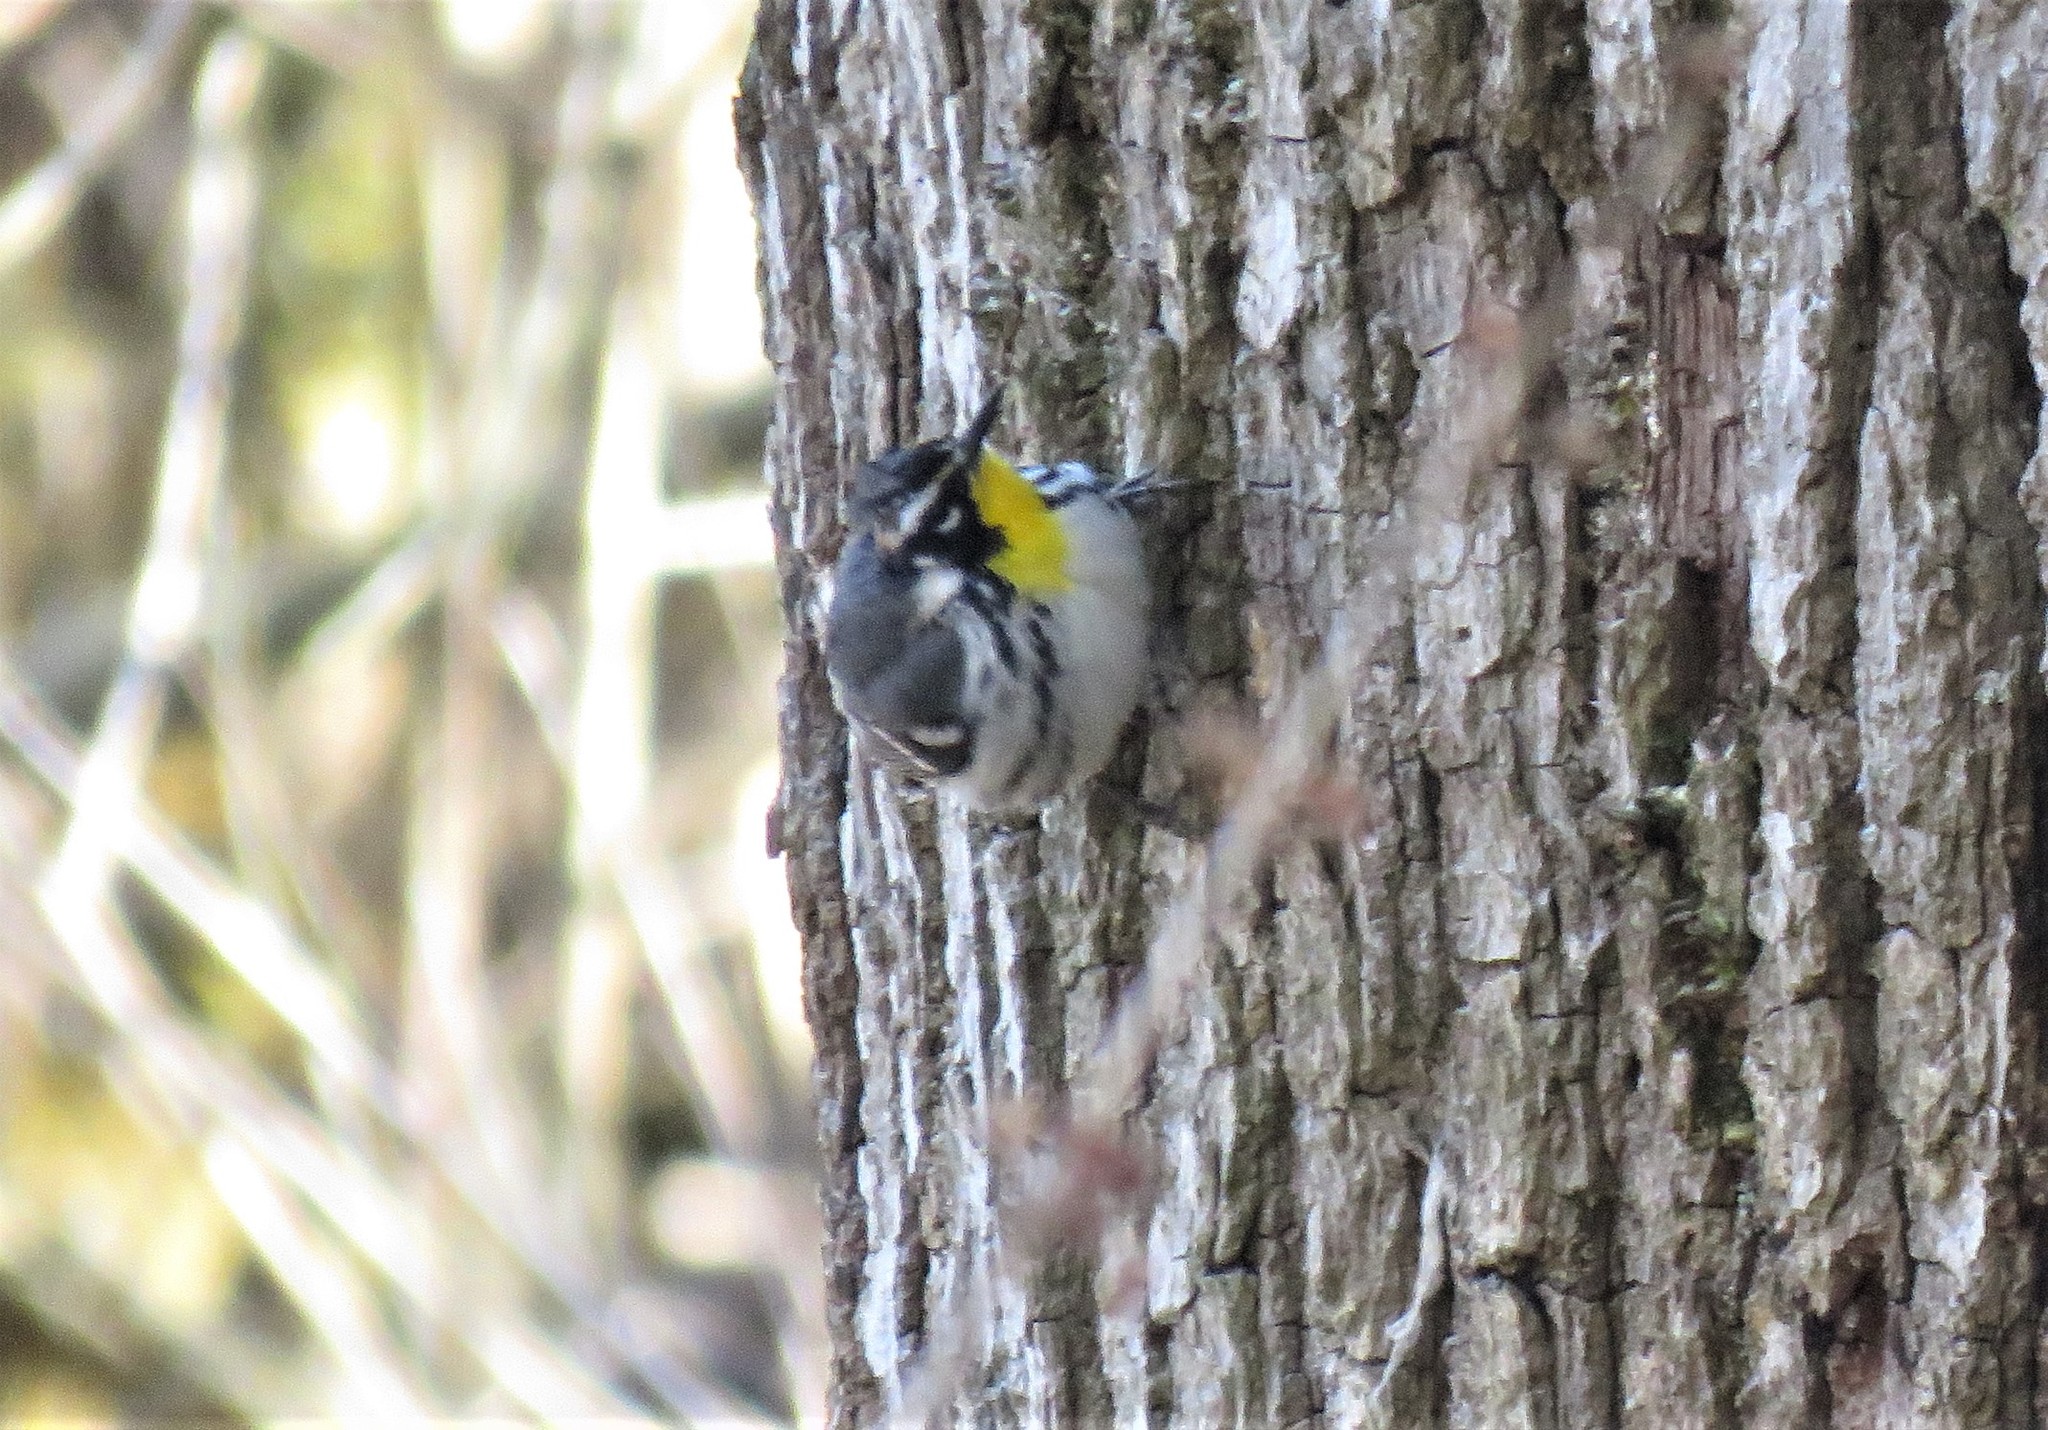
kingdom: Animalia
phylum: Chordata
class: Aves
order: Passeriformes
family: Parulidae
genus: Setophaga
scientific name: Setophaga dominica
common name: Yellow-throated warbler
